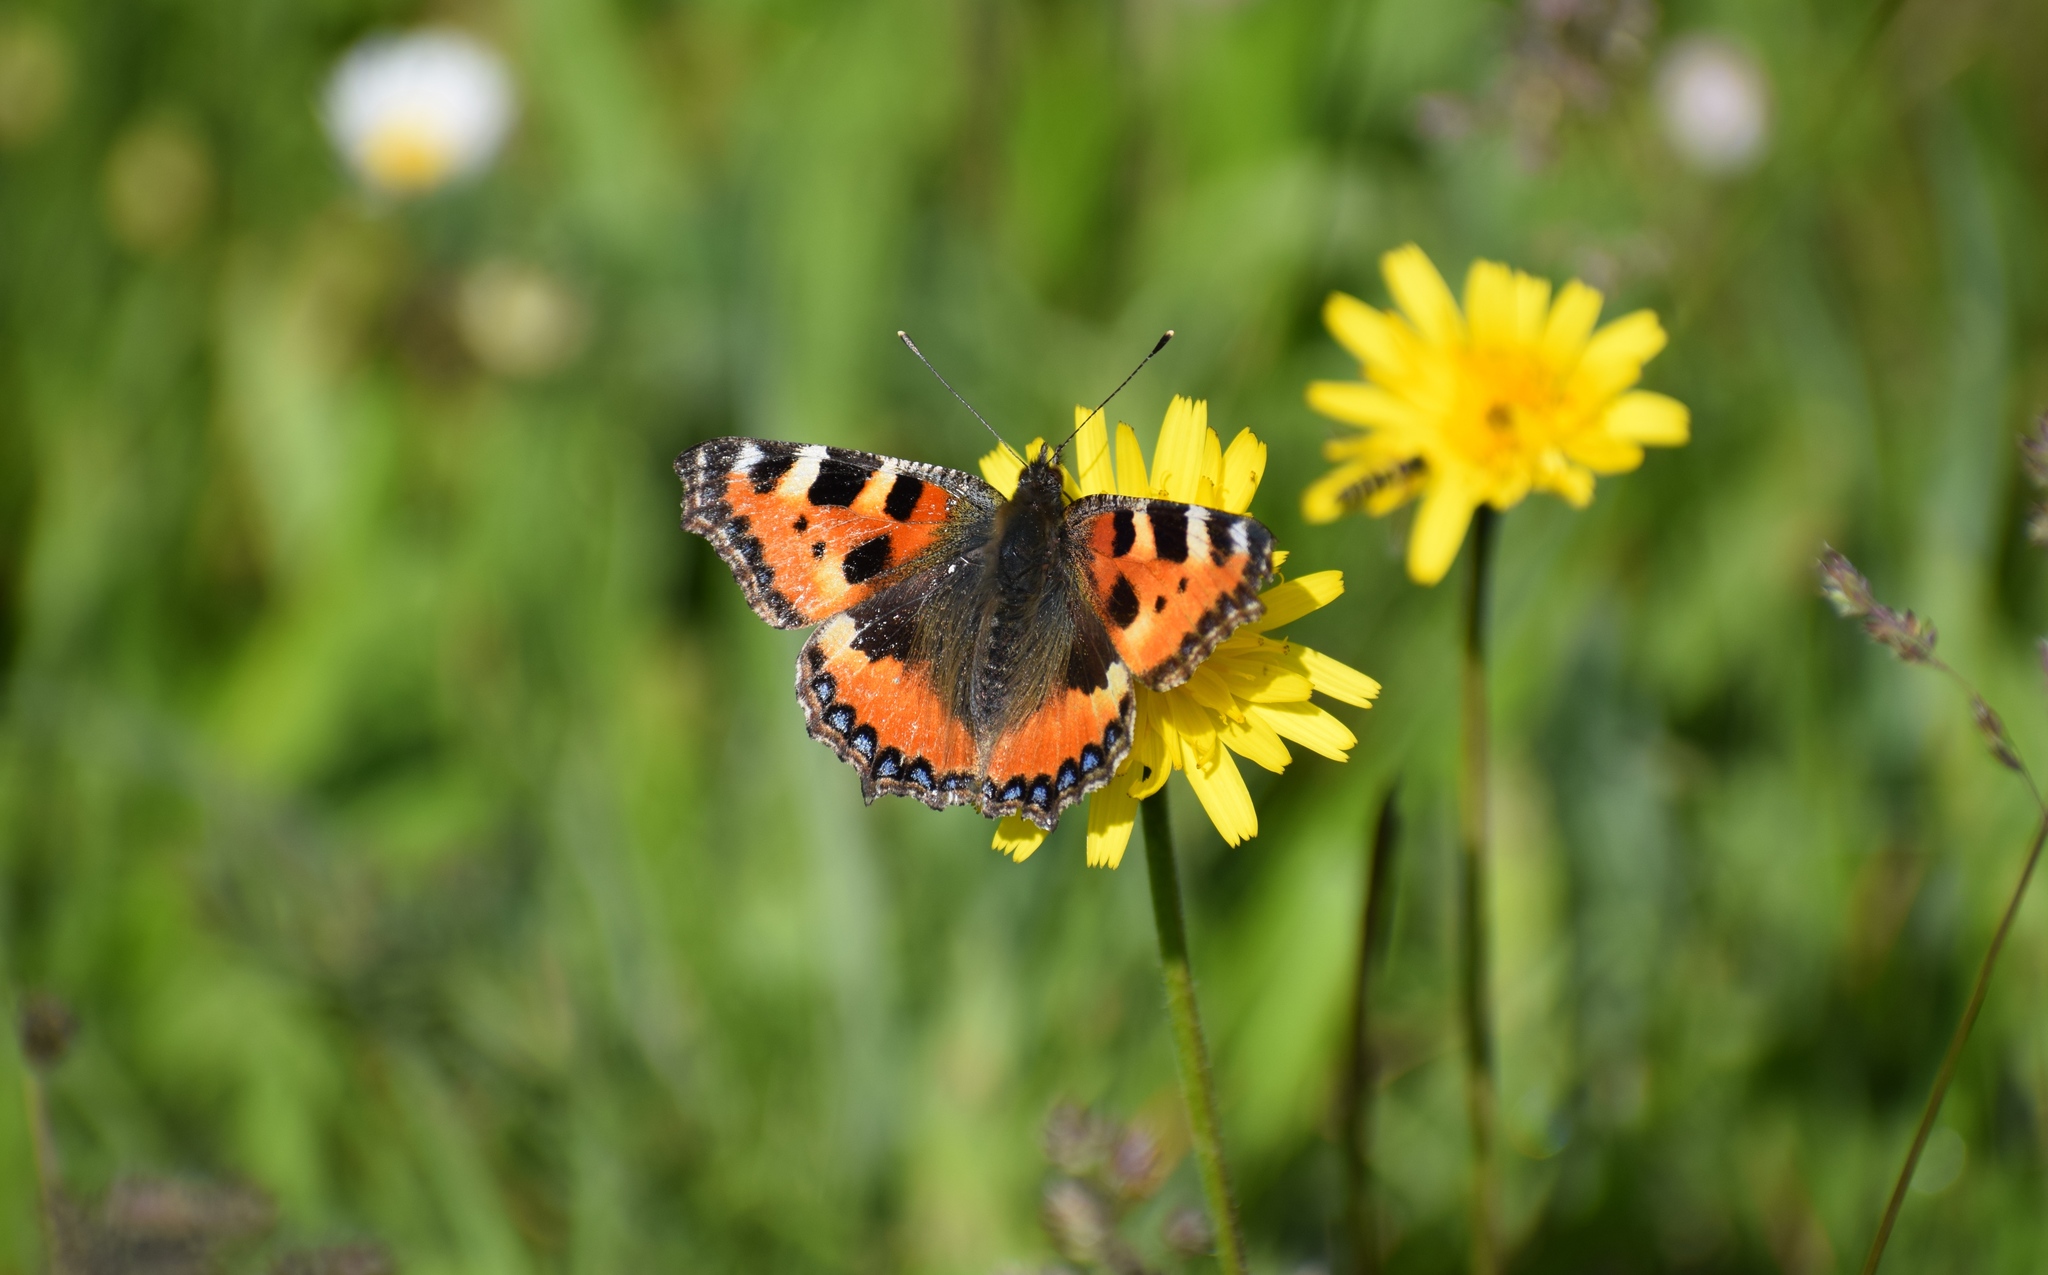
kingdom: Animalia
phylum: Arthropoda
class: Insecta
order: Lepidoptera
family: Nymphalidae
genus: Aglais
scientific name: Aglais urticae
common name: Small tortoiseshell
